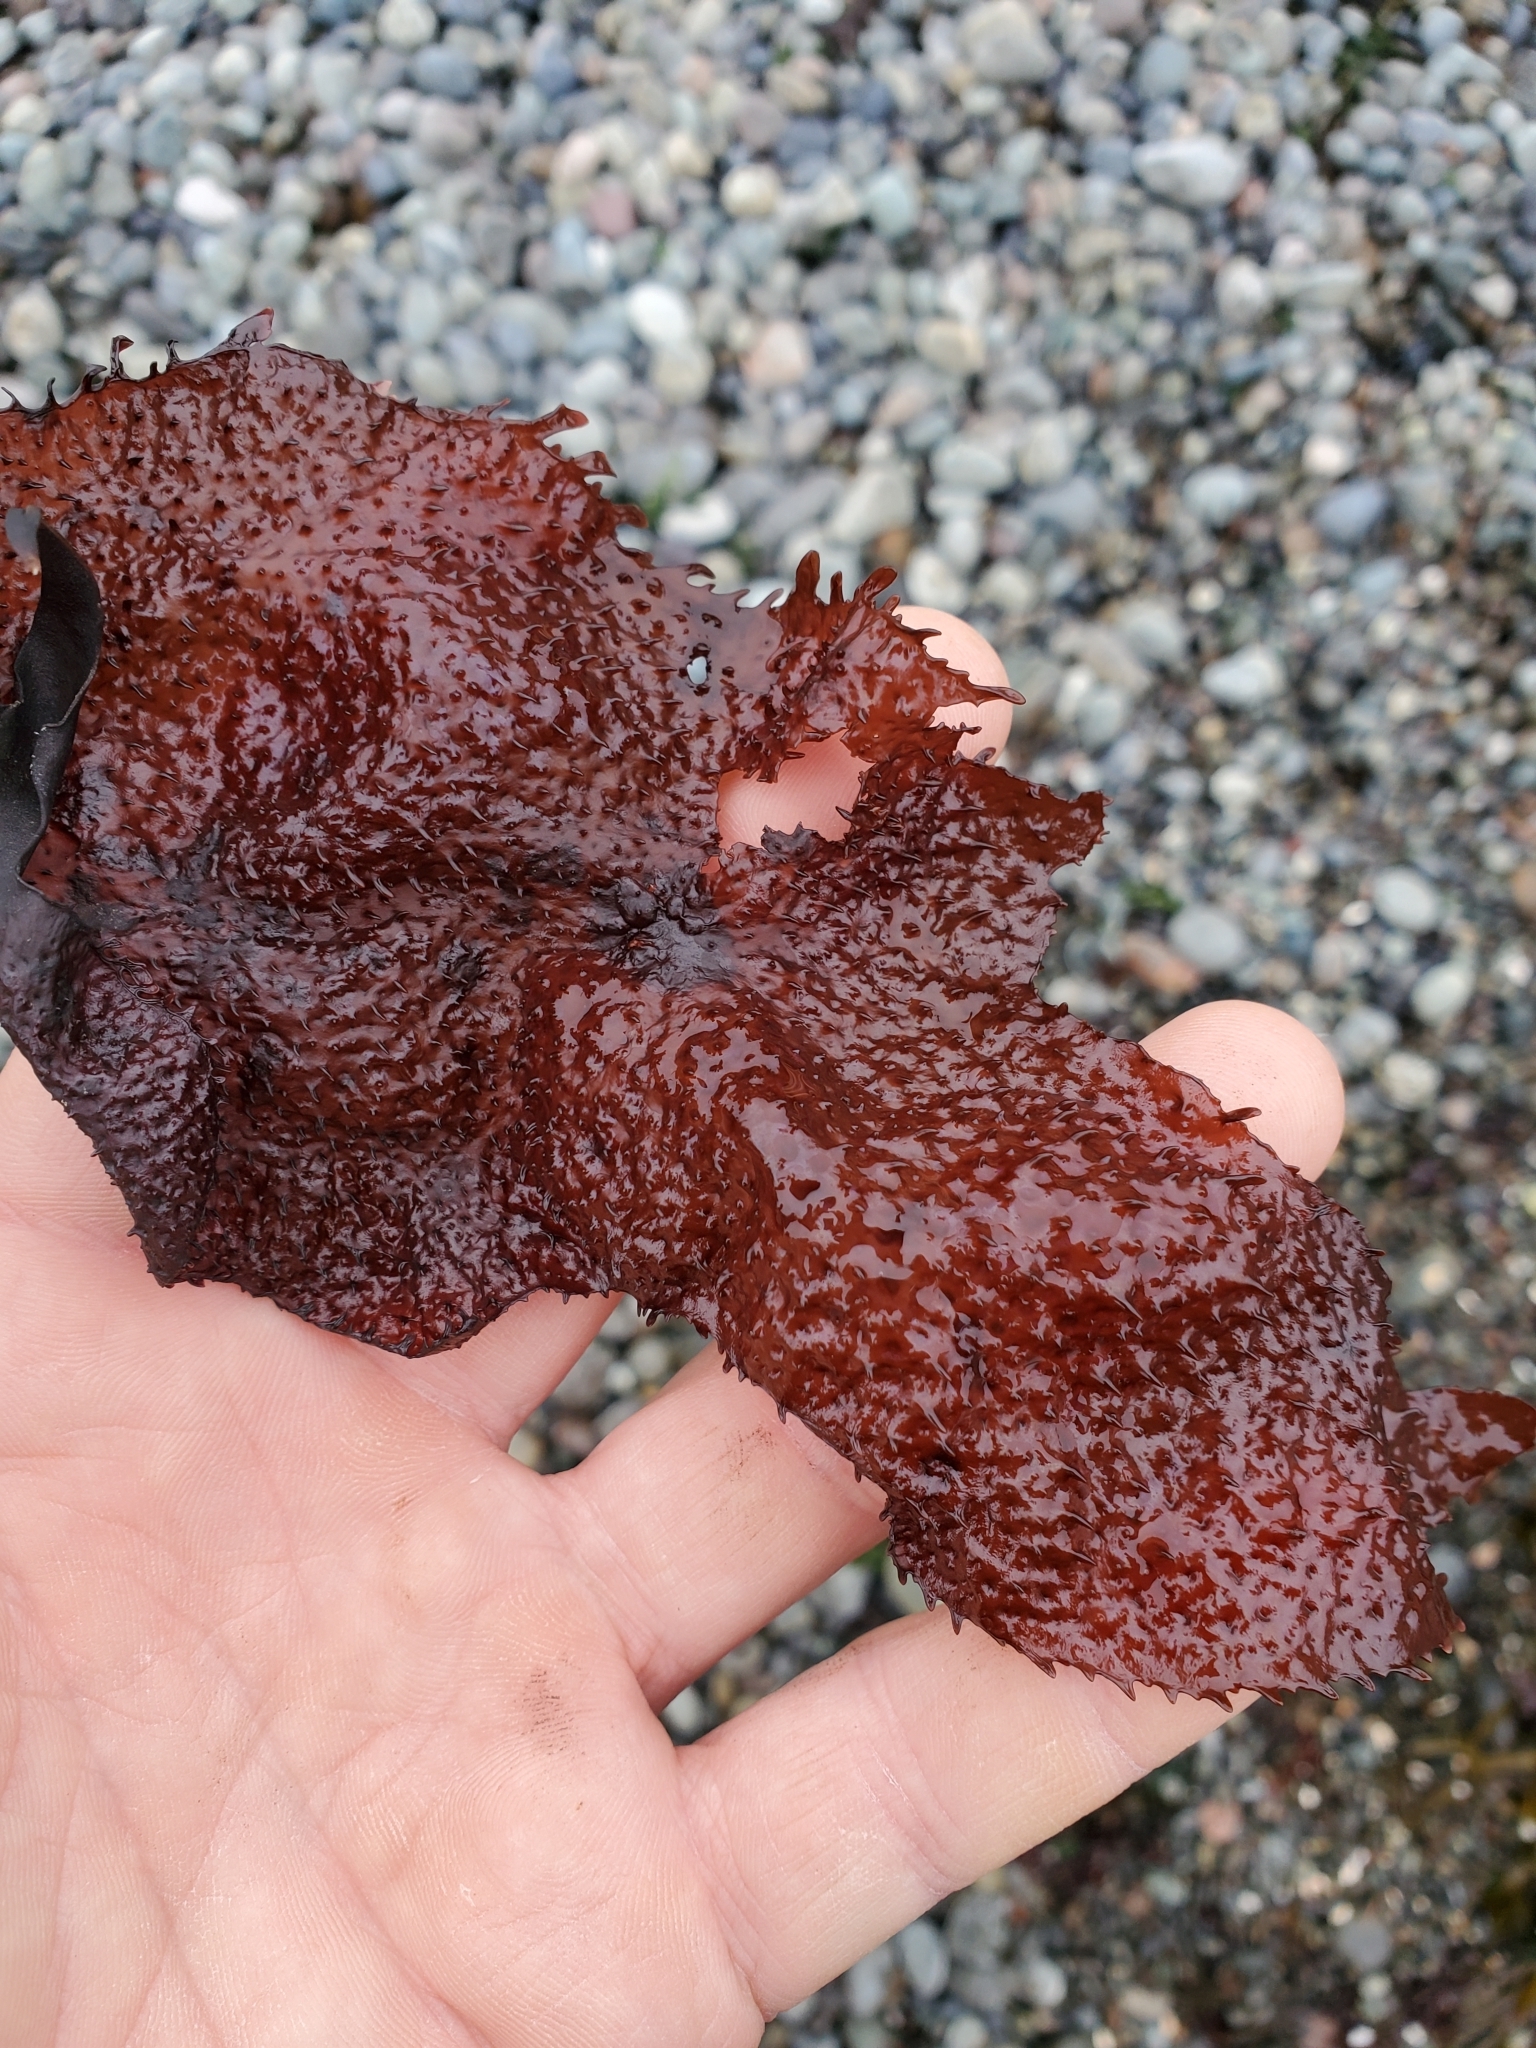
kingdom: Plantae
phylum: Rhodophyta
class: Florideophyceae
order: Gigartinales
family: Gigartinaceae
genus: Chondracanthus
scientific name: Chondracanthus exasperatus
